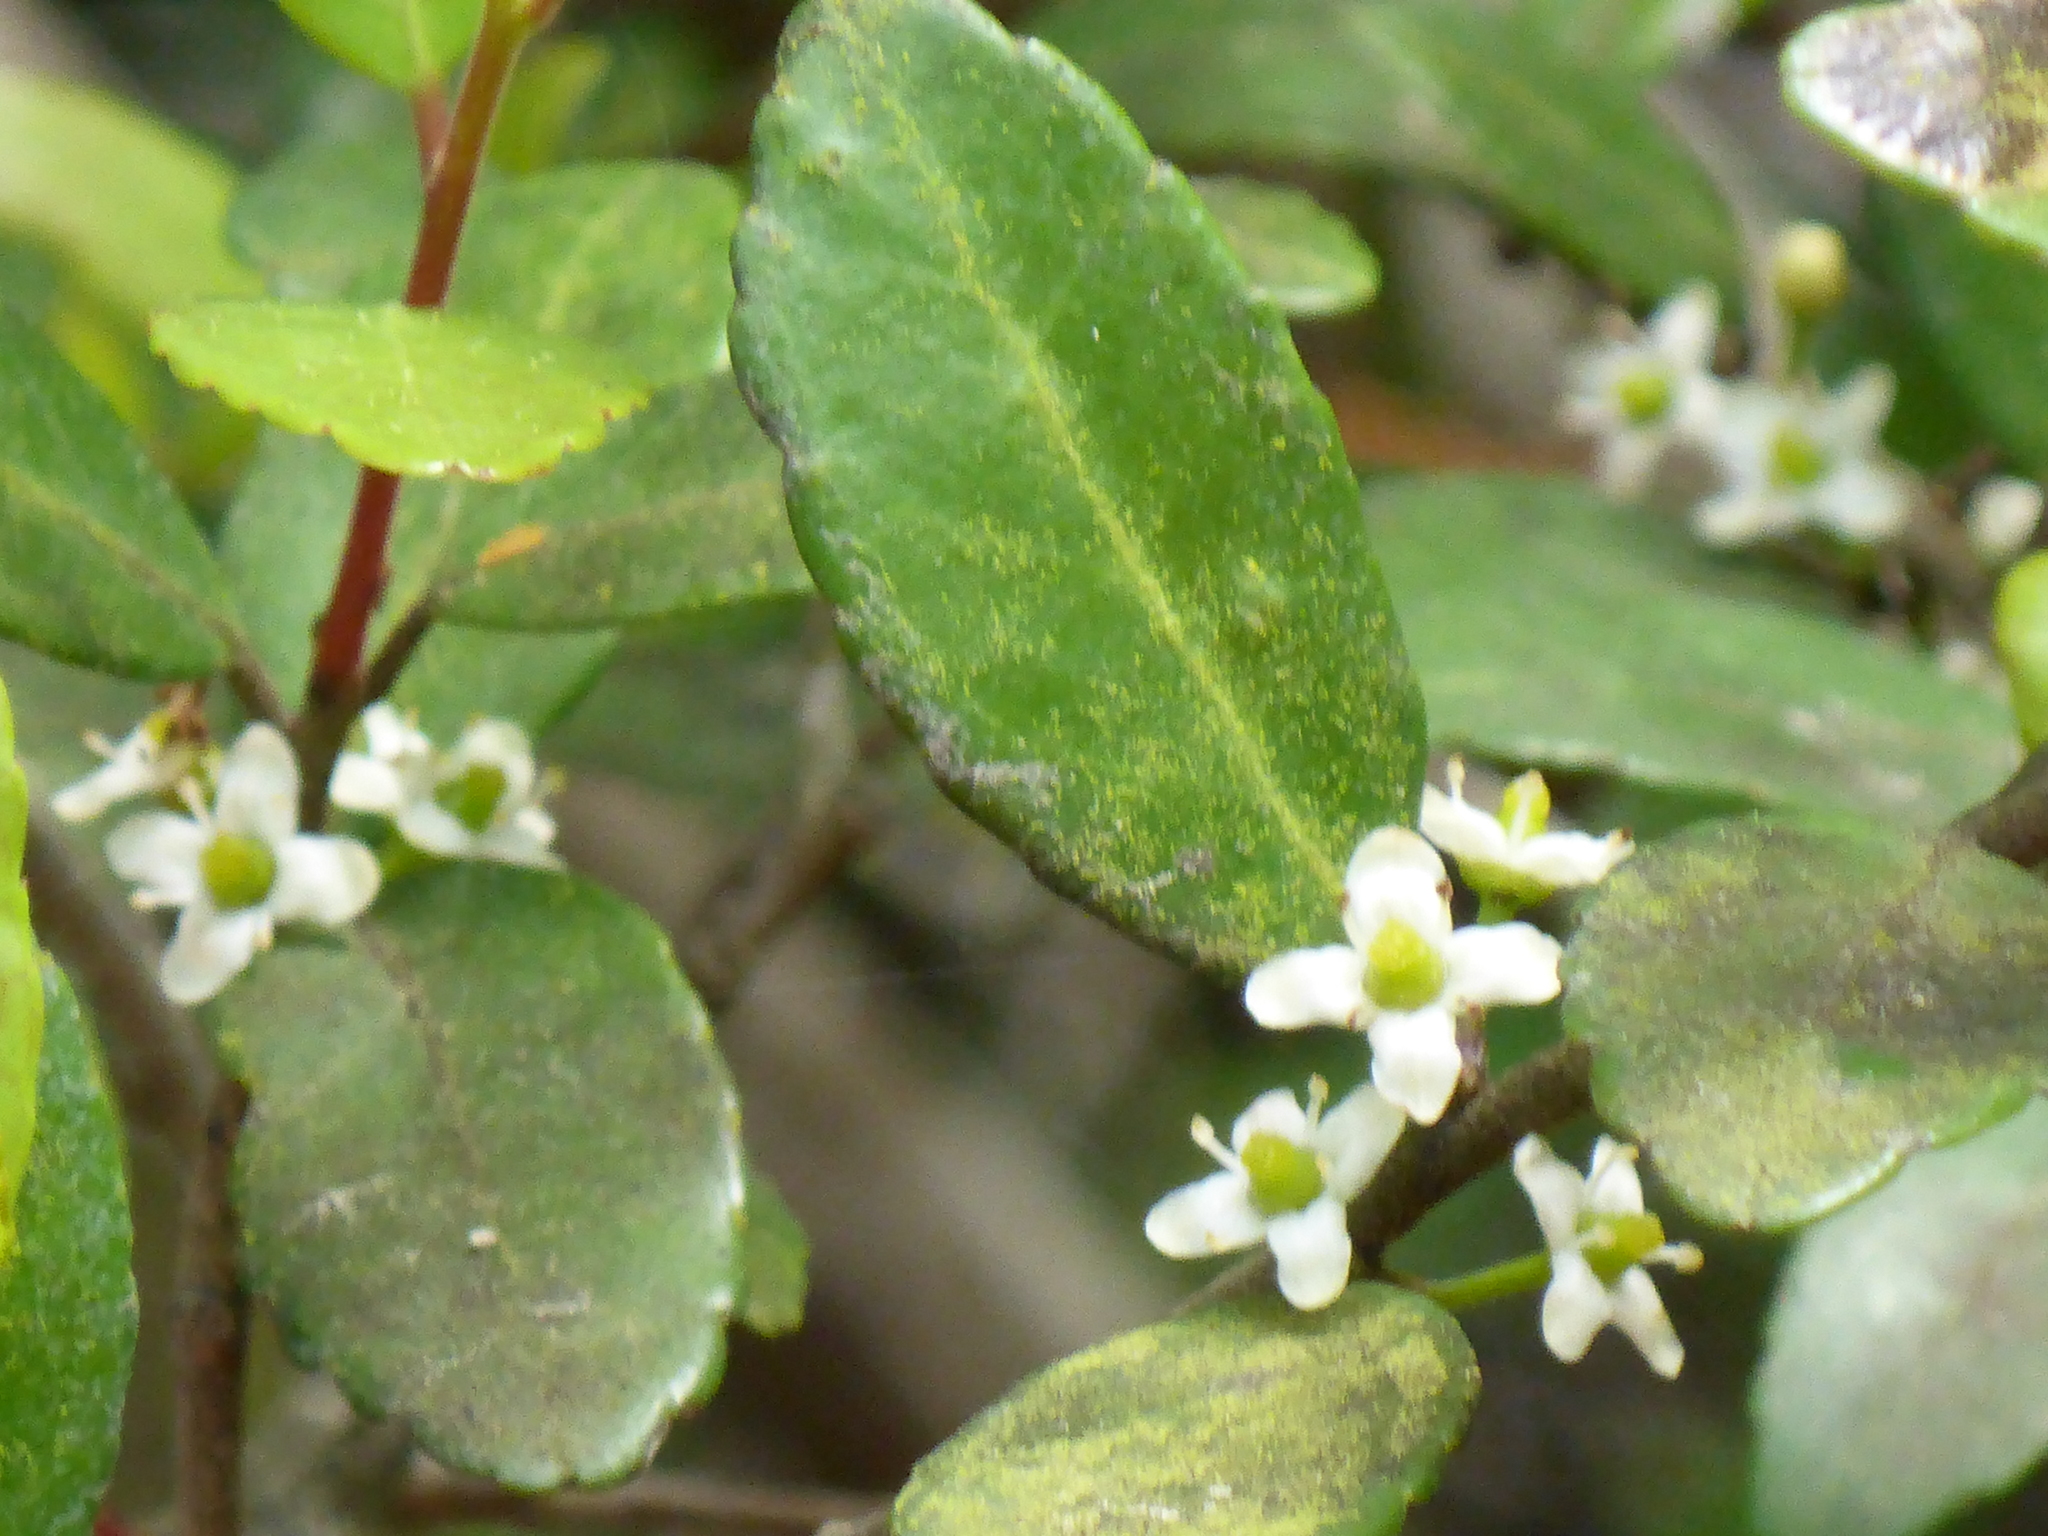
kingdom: Plantae
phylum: Tracheophyta
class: Magnoliopsida
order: Aquifoliales
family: Aquifoliaceae
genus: Ilex
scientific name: Ilex vomitoria
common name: Yaupon holly
